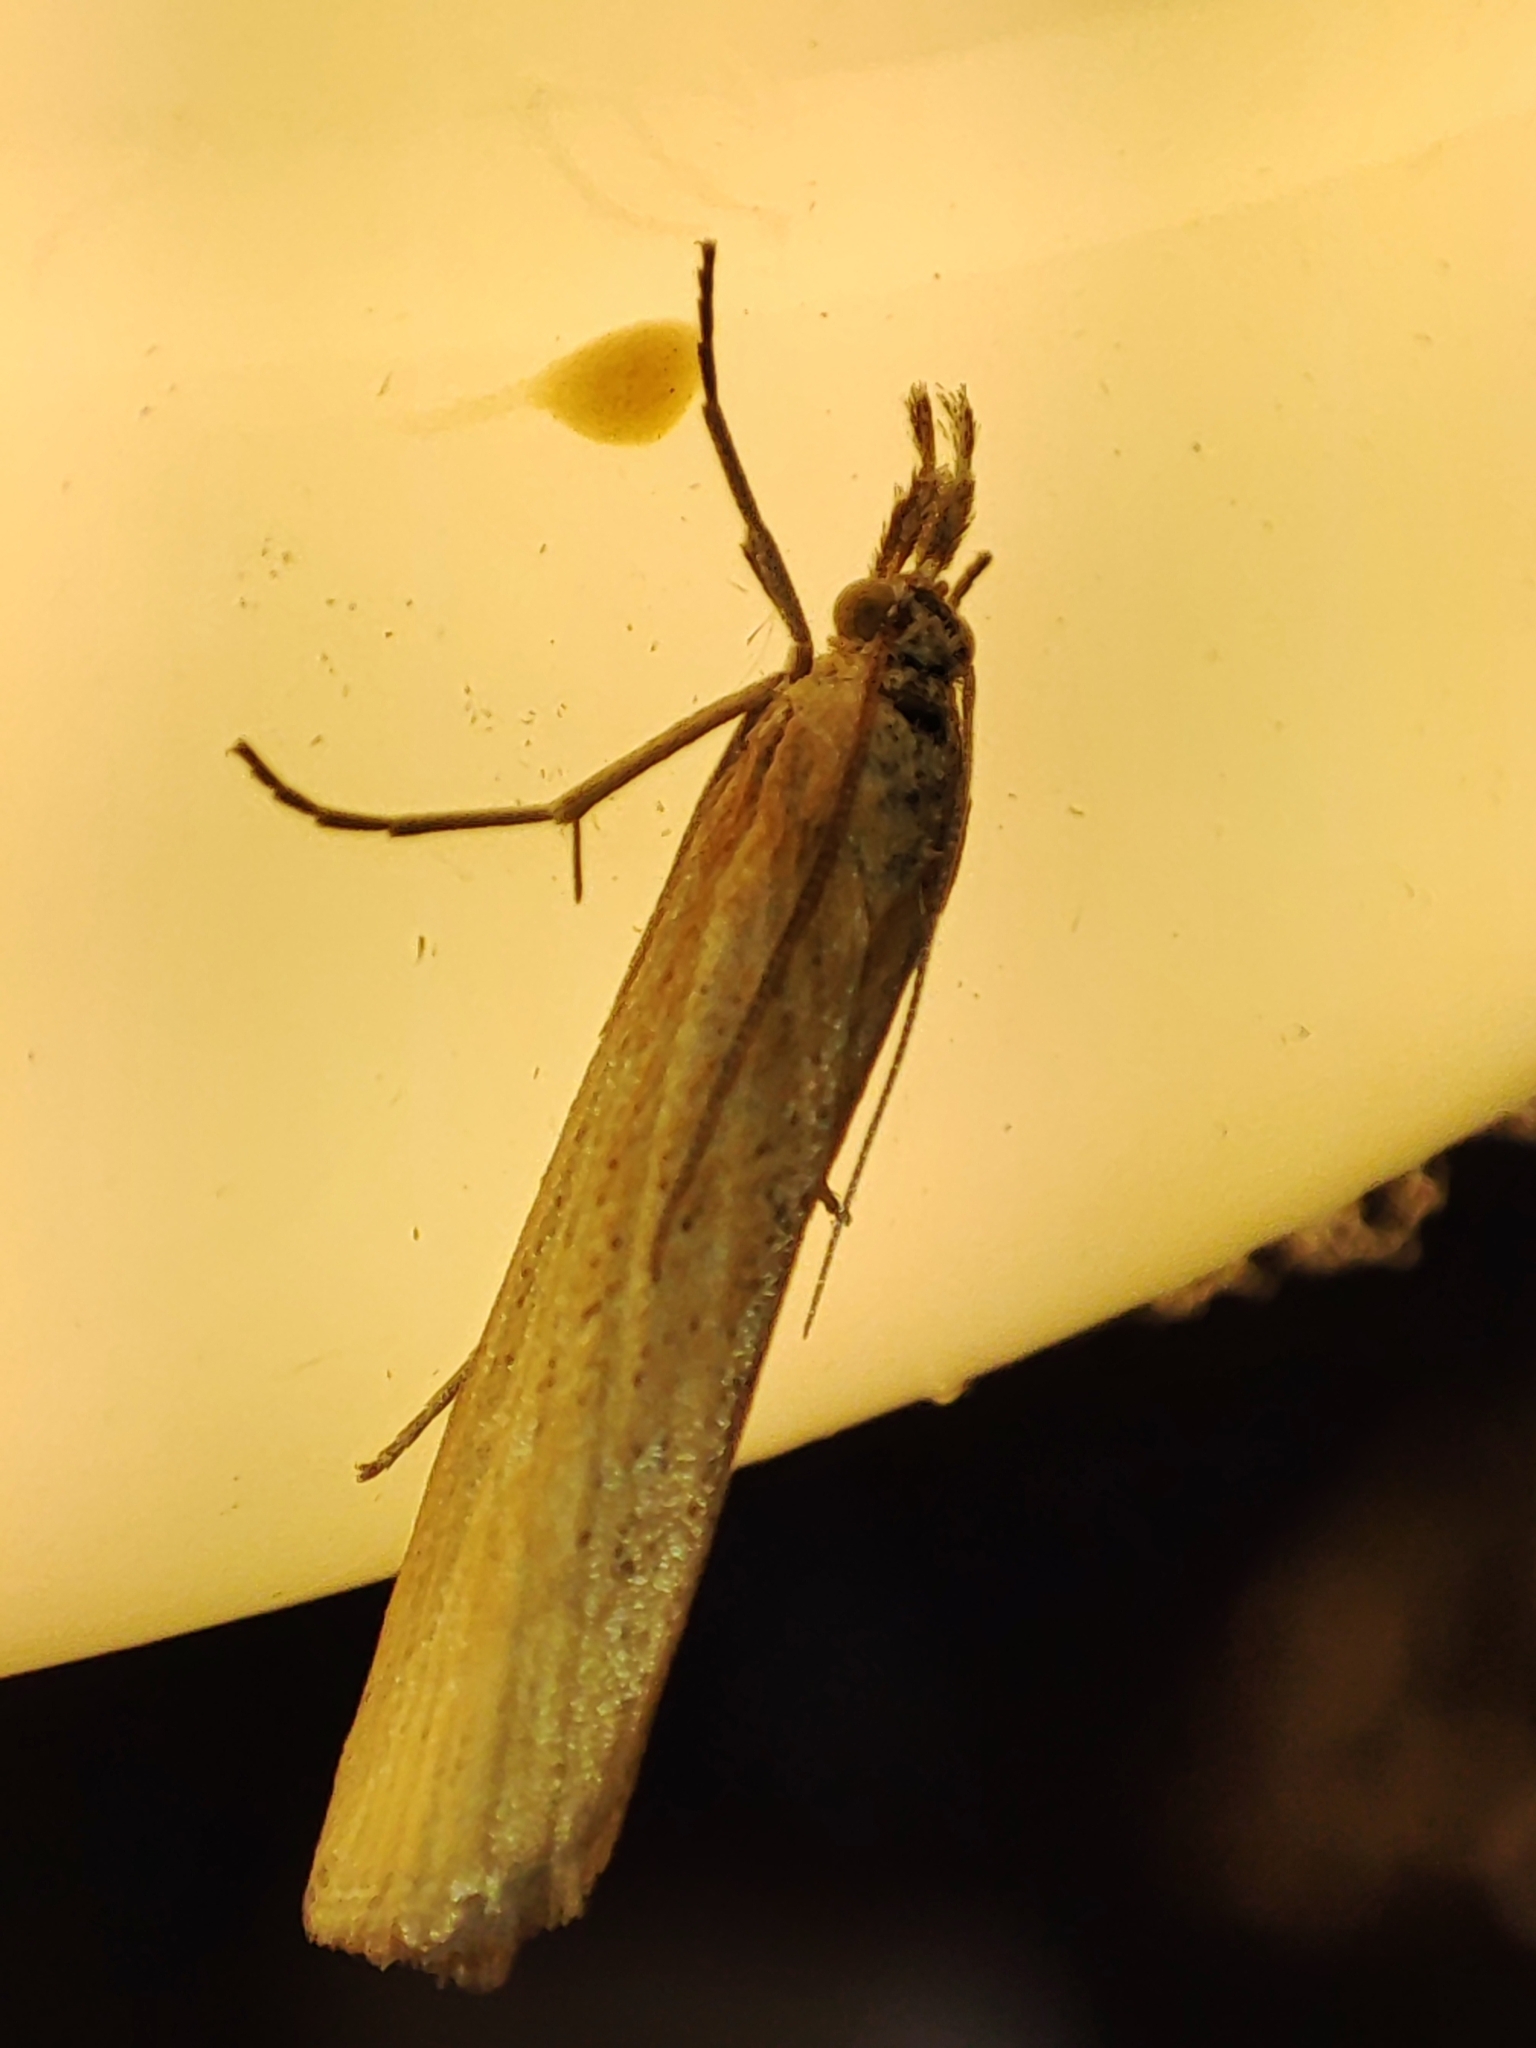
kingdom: Animalia
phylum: Arthropoda
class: Insecta
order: Lepidoptera
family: Crambidae
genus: Pediasia
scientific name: Pediasia luteella
